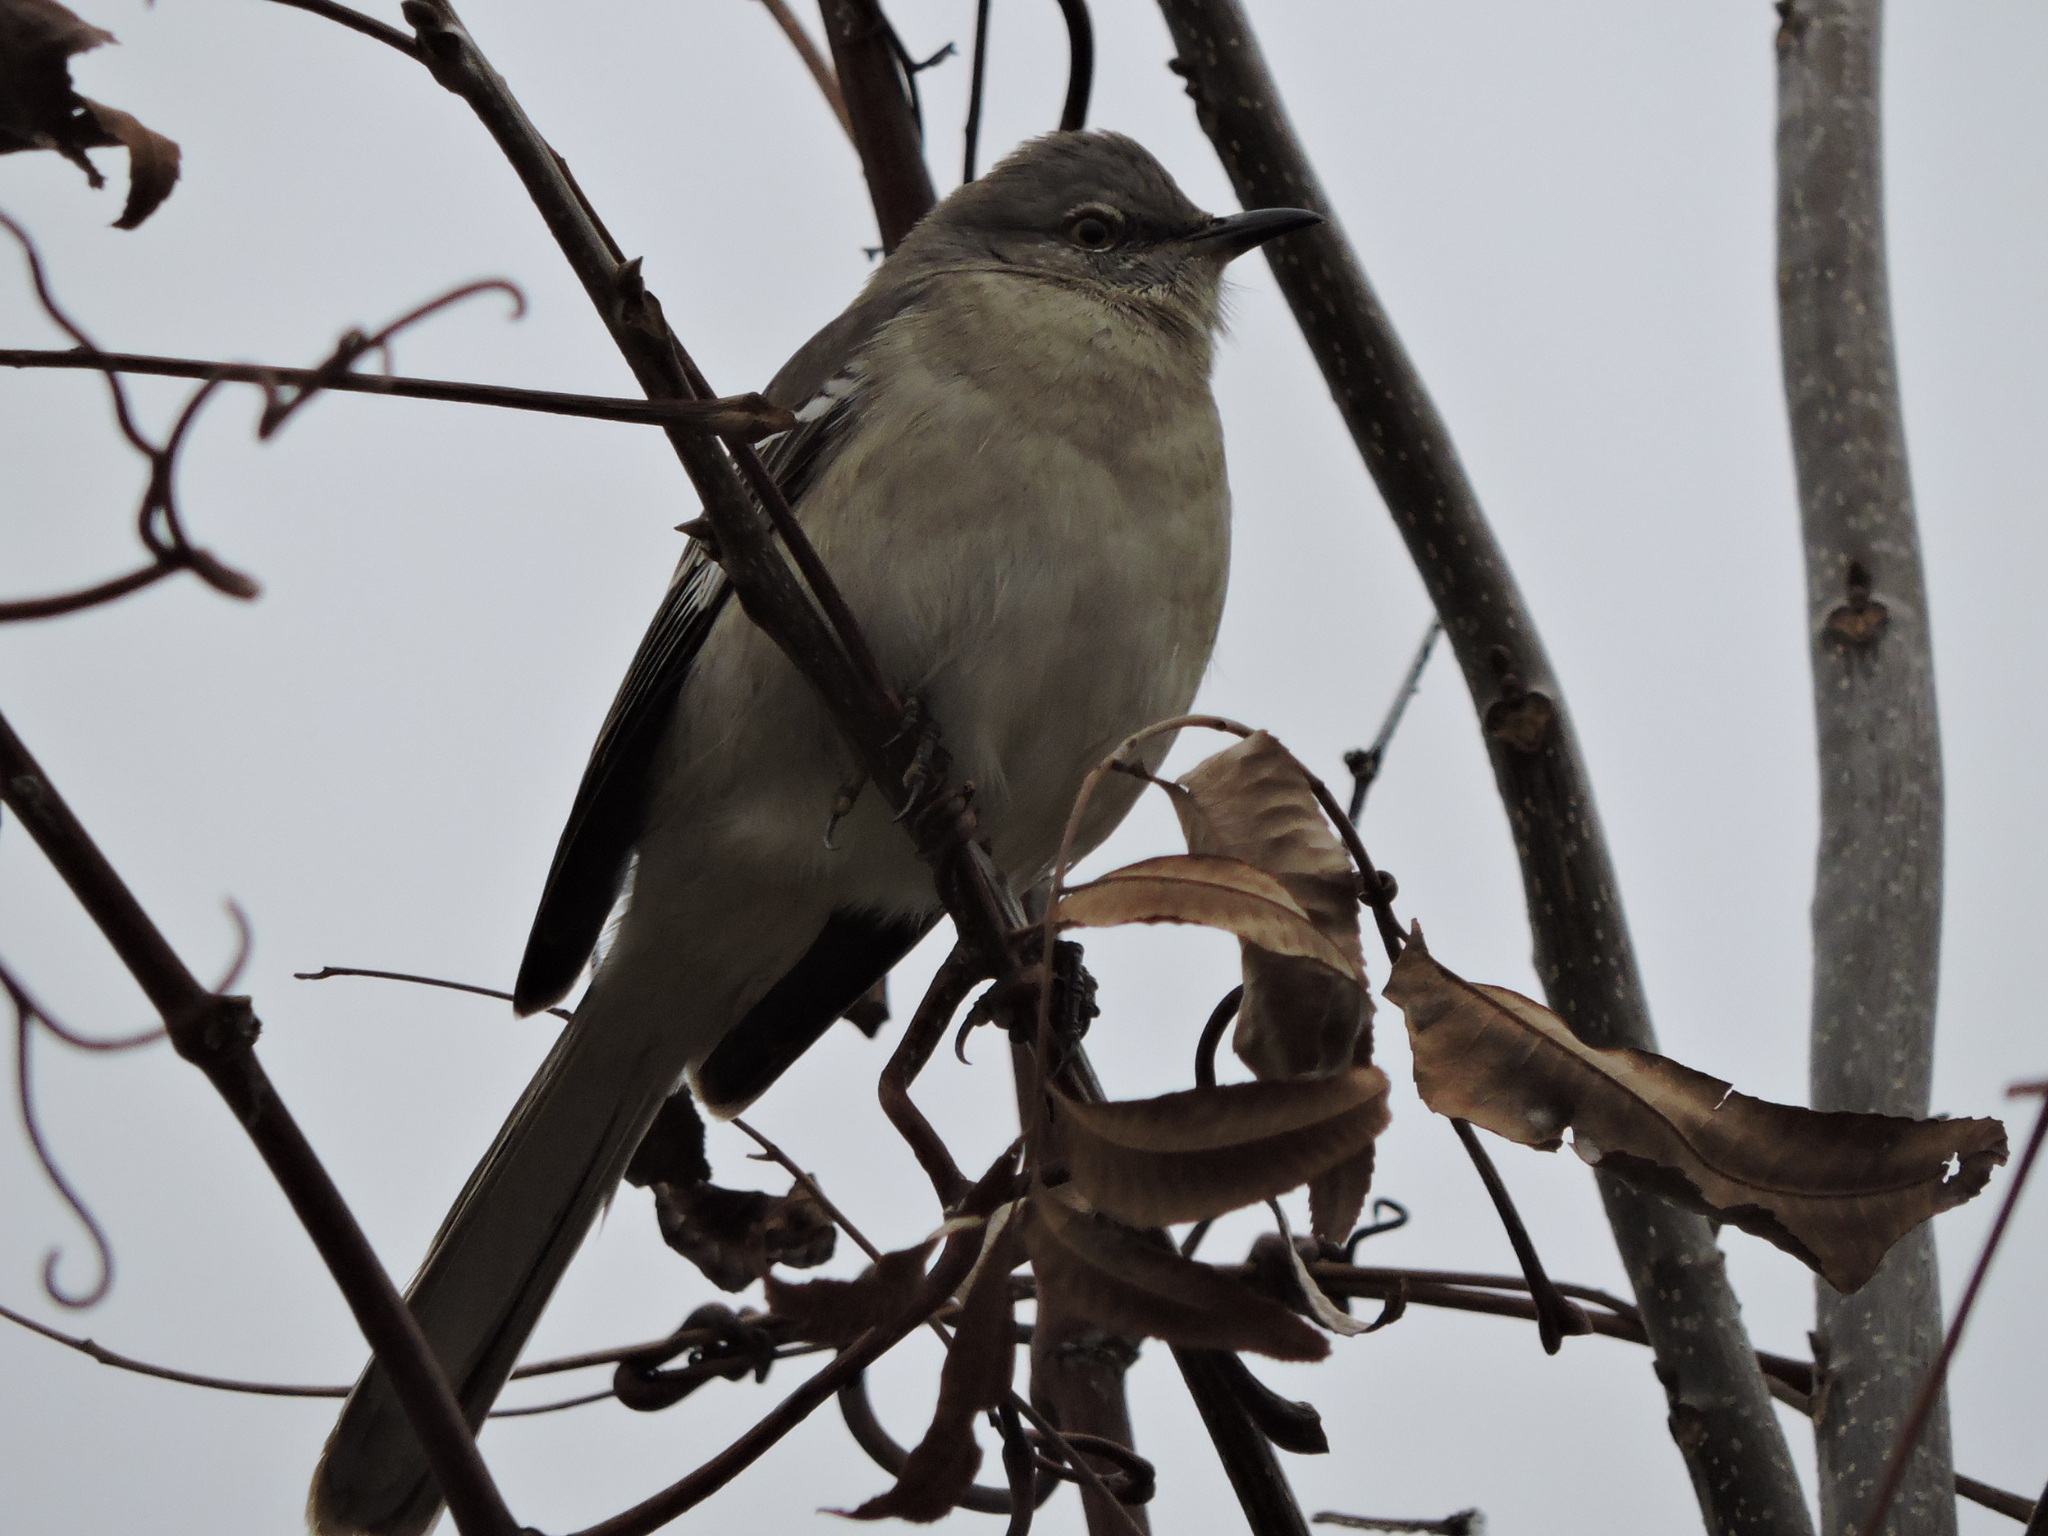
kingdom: Animalia
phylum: Chordata
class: Aves
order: Passeriformes
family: Mimidae
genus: Mimus
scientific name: Mimus polyglottos
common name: Northern mockingbird
